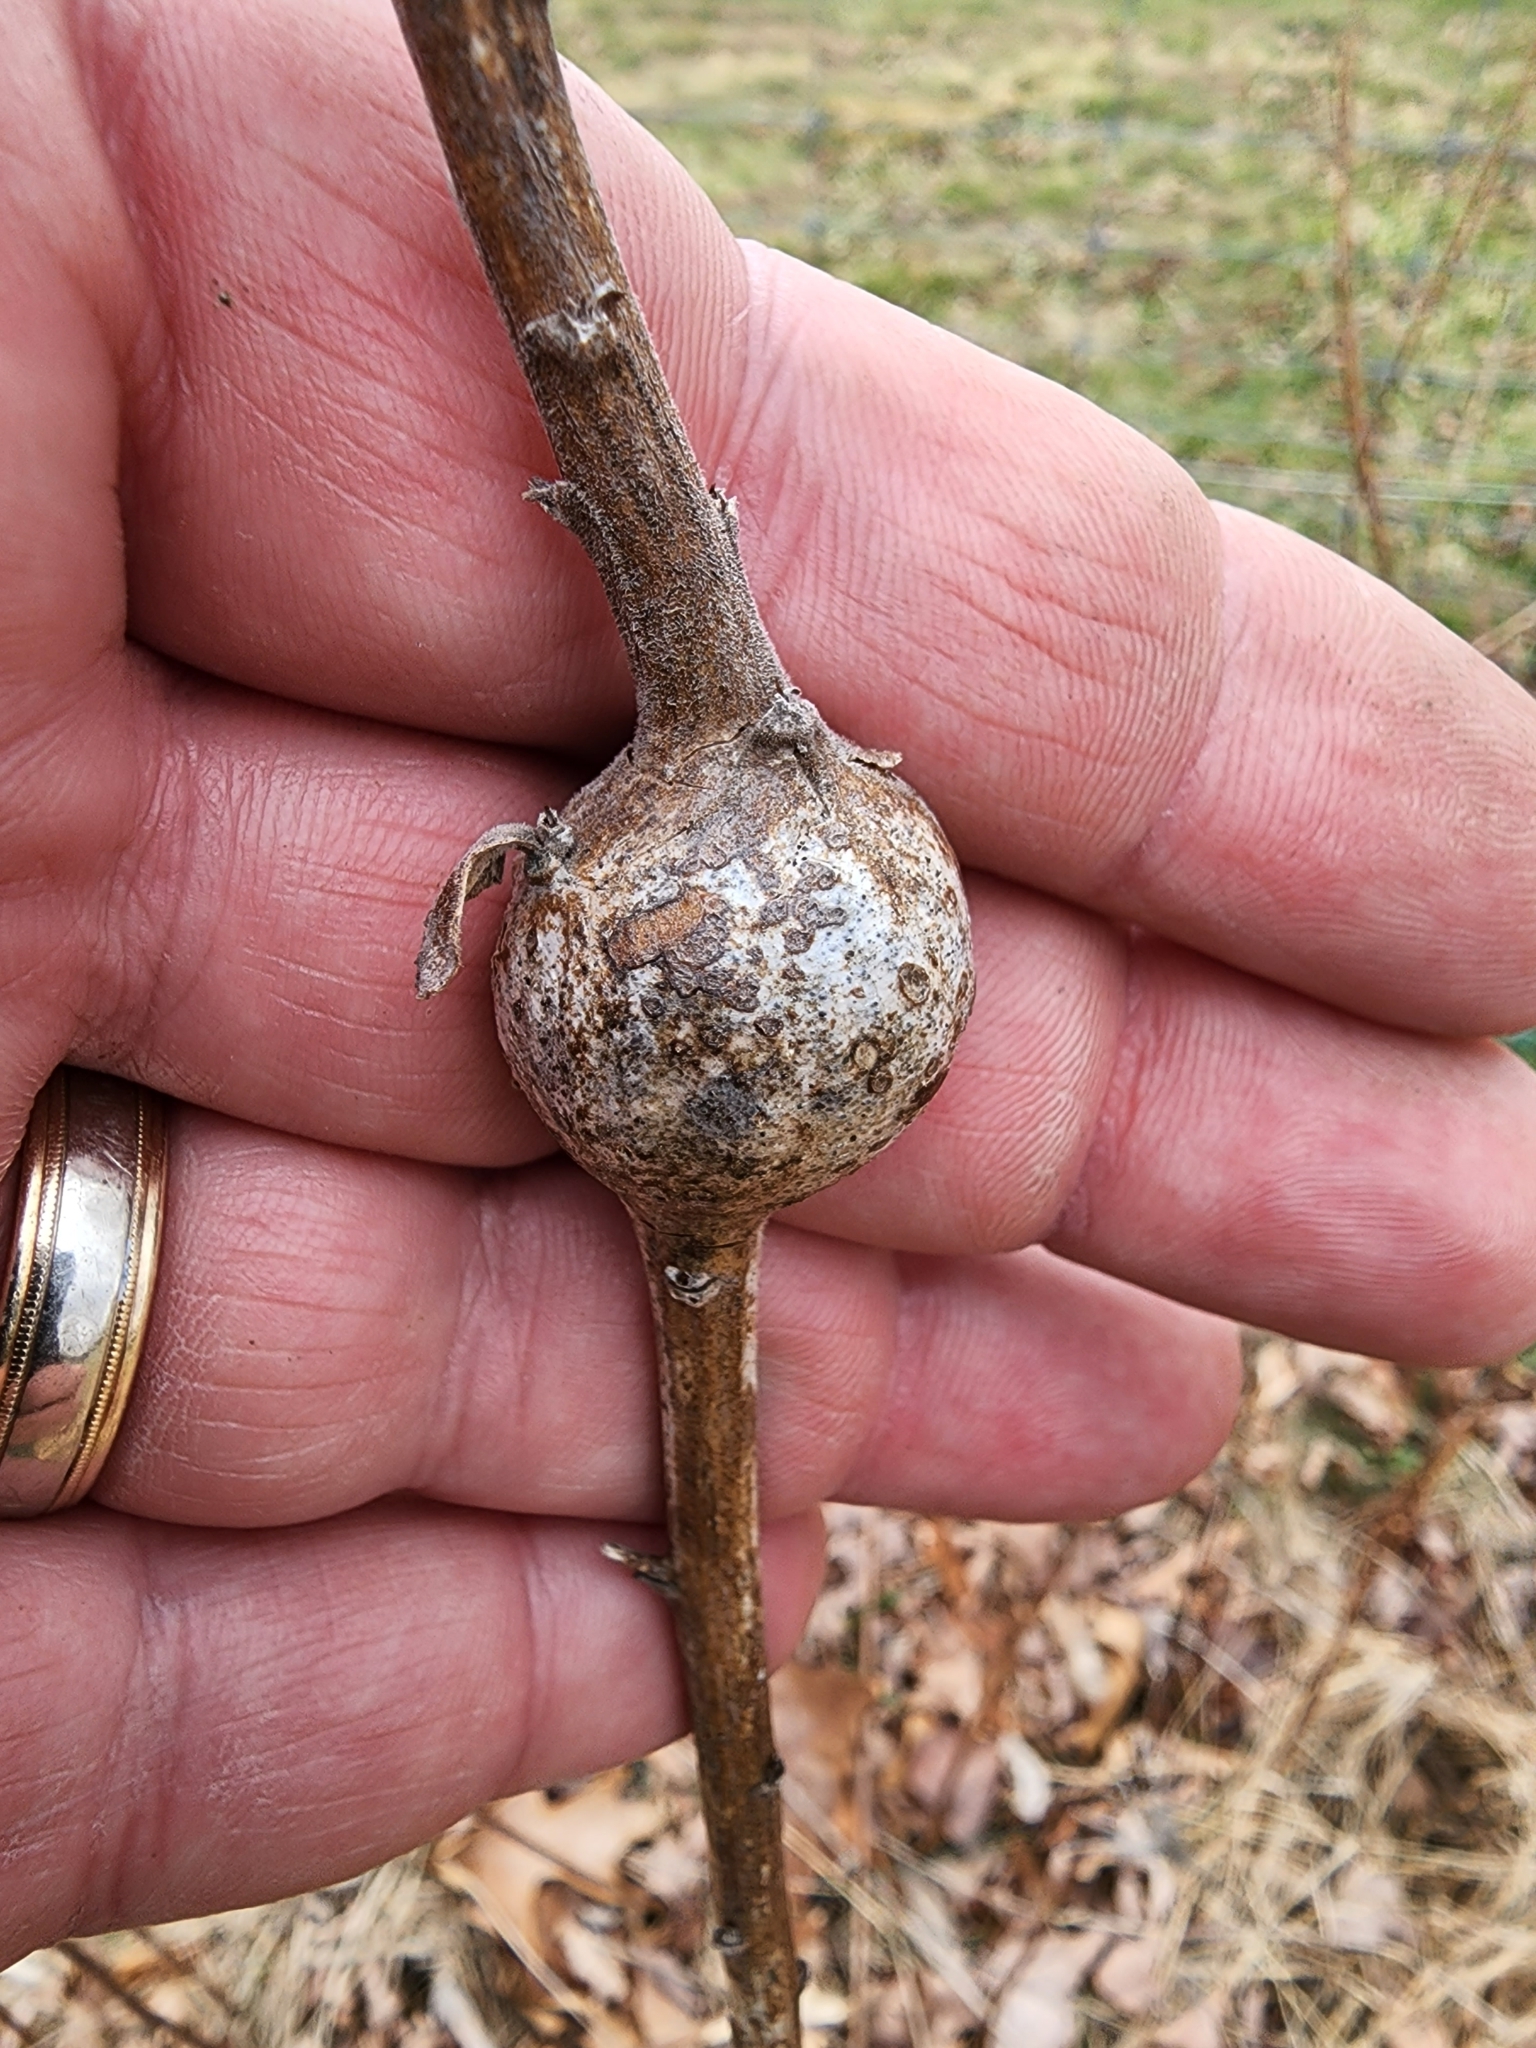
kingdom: Animalia
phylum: Arthropoda
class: Insecta
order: Diptera
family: Tephritidae
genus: Eurosta
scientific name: Eurosta solidaginis
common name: Goldenrod gall fly
